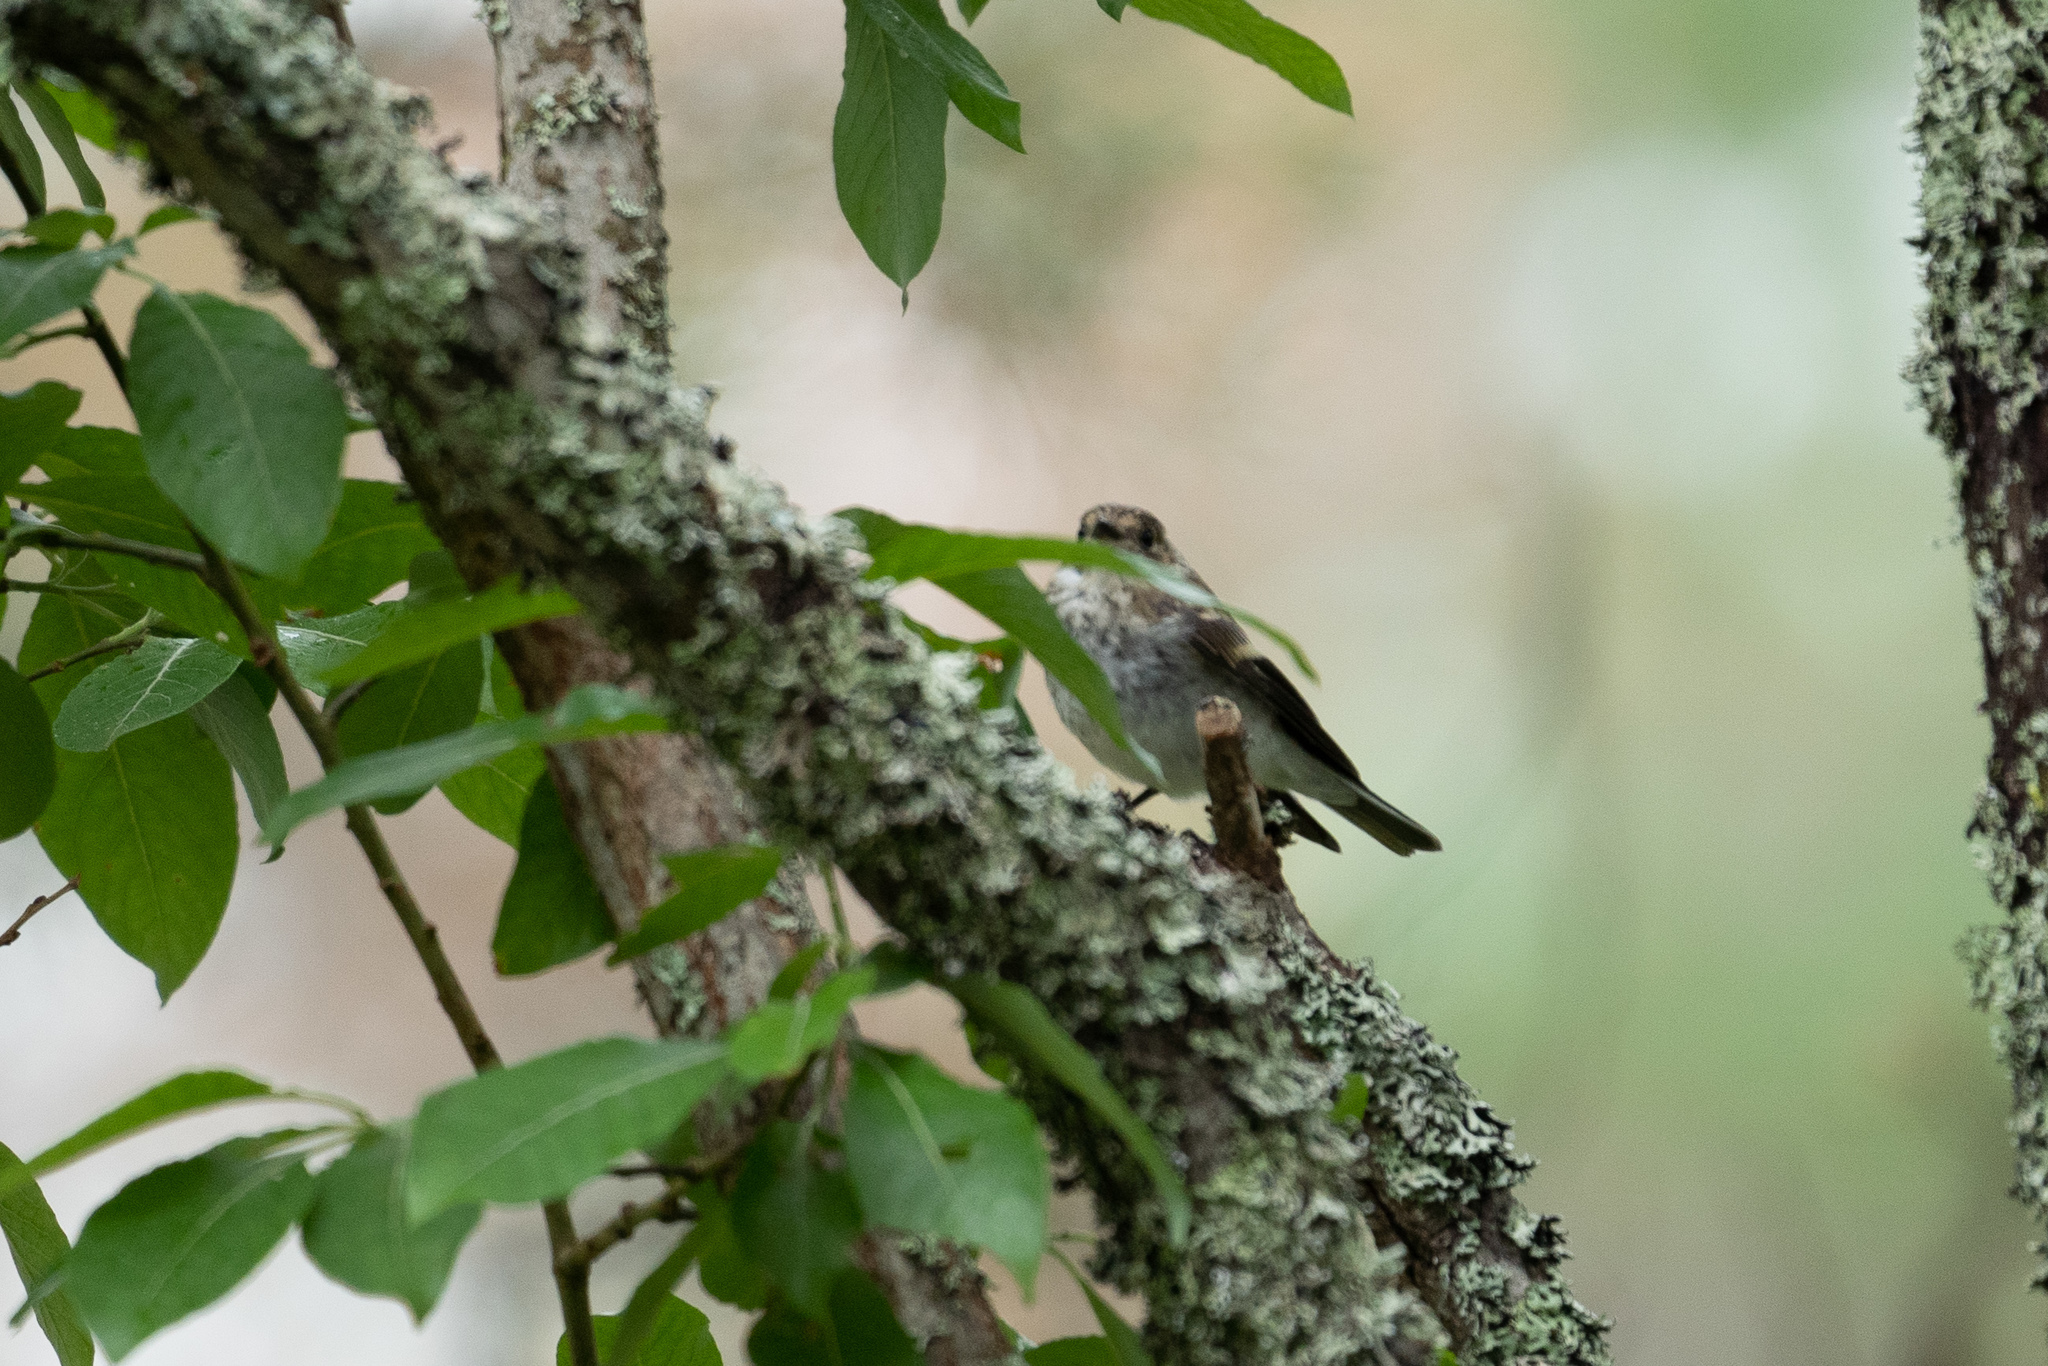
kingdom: Animalia
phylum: Chordata
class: Aves
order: Passeriformes
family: Muscicapidae
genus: Ficedula
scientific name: Ficedula hypoleuca
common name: European pied flycatcher
